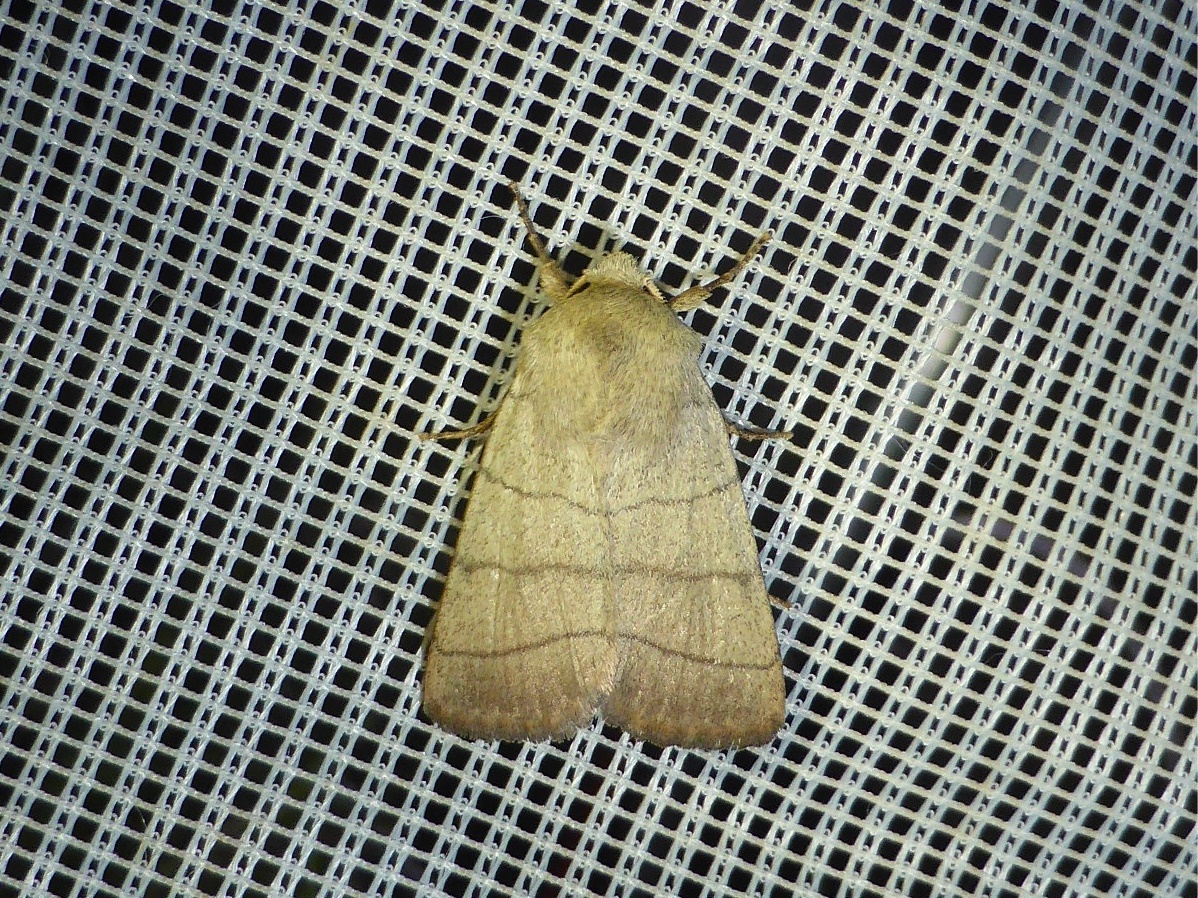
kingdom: Animalia
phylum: Arthropoda
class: Insecta
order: Lepidoptera
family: Noctuidae
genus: Charanyca
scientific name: Charanyca trigrammica
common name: Treble lines
